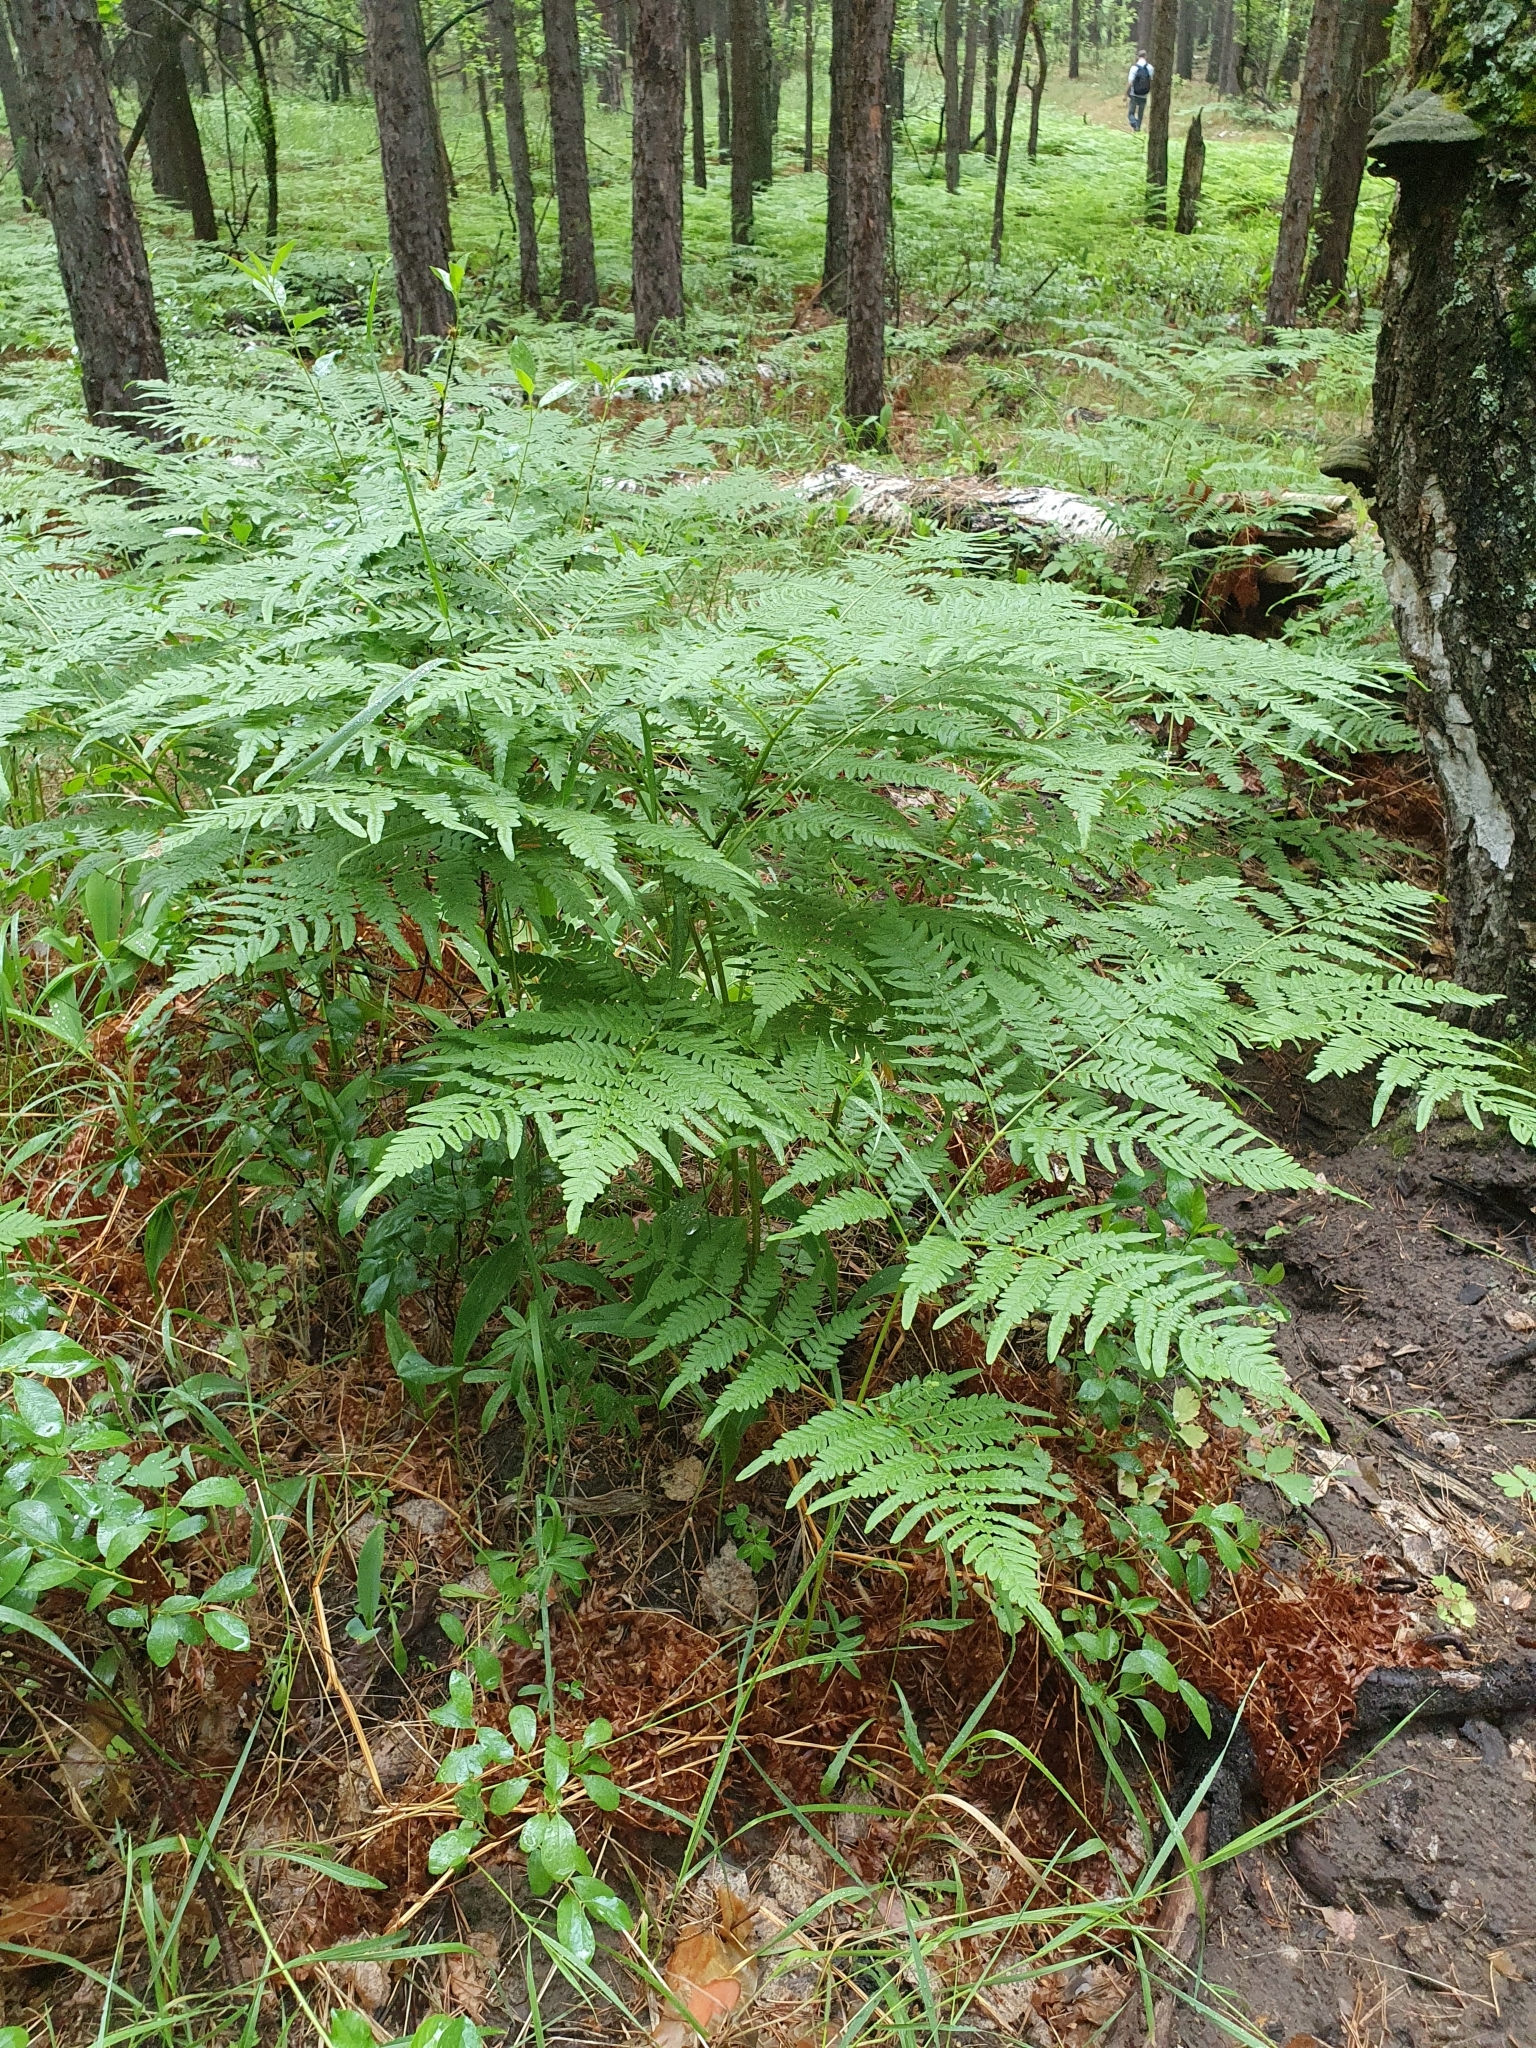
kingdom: Plantae
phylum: Tracheophyta
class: Polypodiopsida
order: Polypodiales
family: Dennstaedtiaceae
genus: Pteridium
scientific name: Pteridium aquilinum
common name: Bracken
